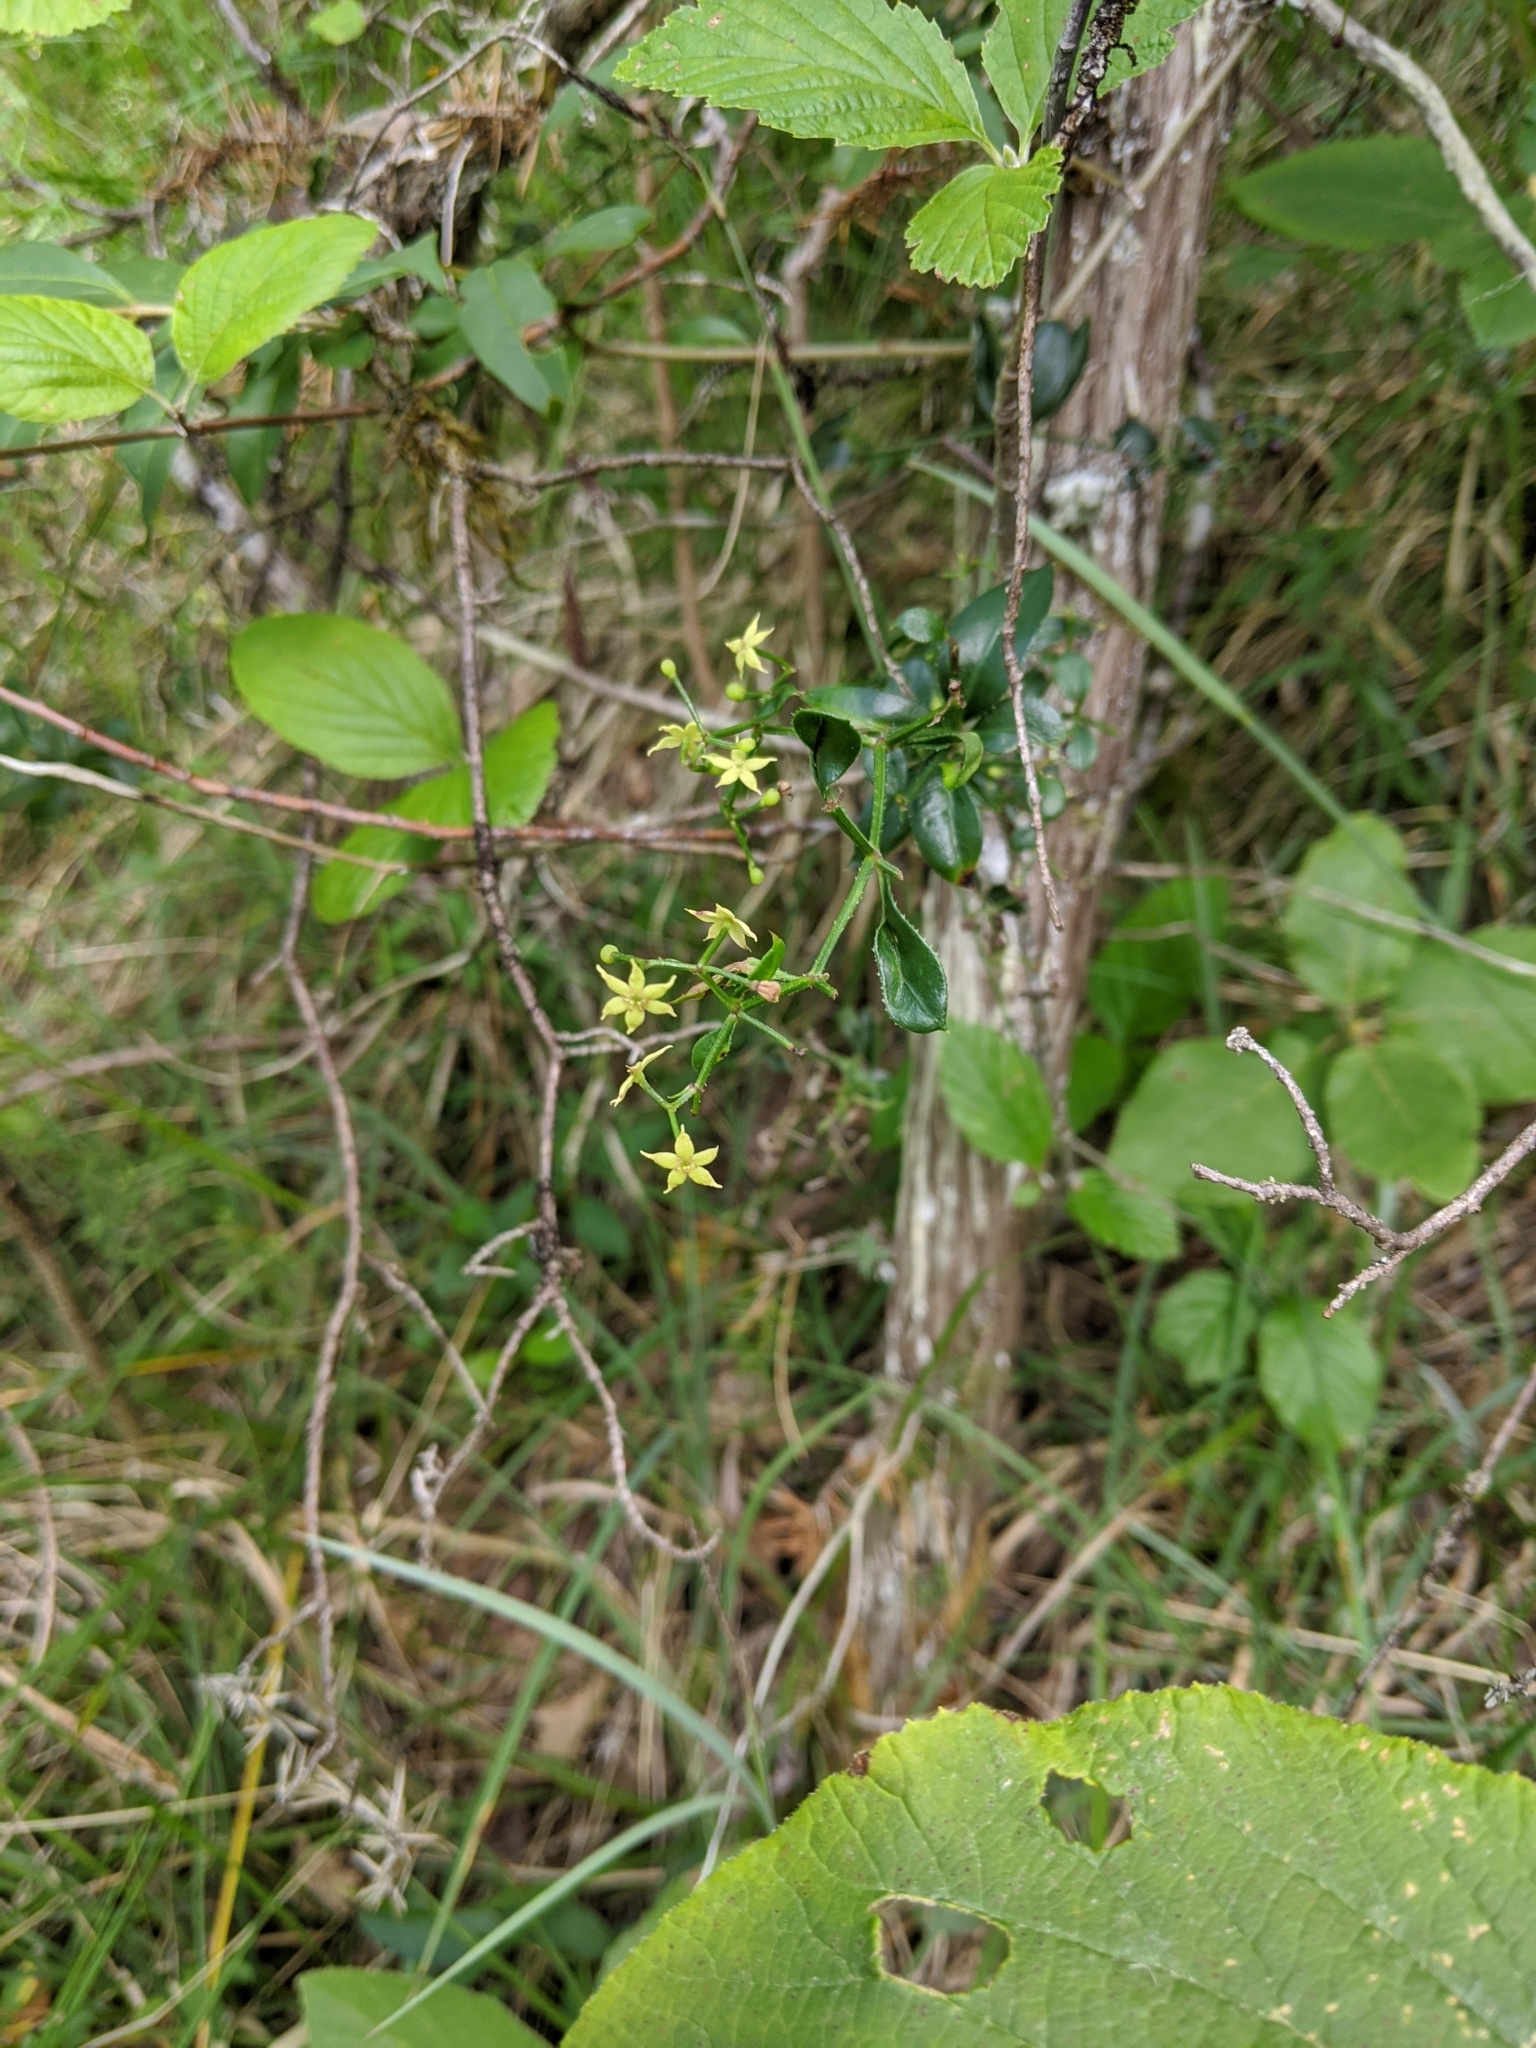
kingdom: Plantae
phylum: Tracheophyta
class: Magnoliopsida
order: Gentianales
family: Rubiaceae
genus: Rubia
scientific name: Rubia peregrina
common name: Wild madder
